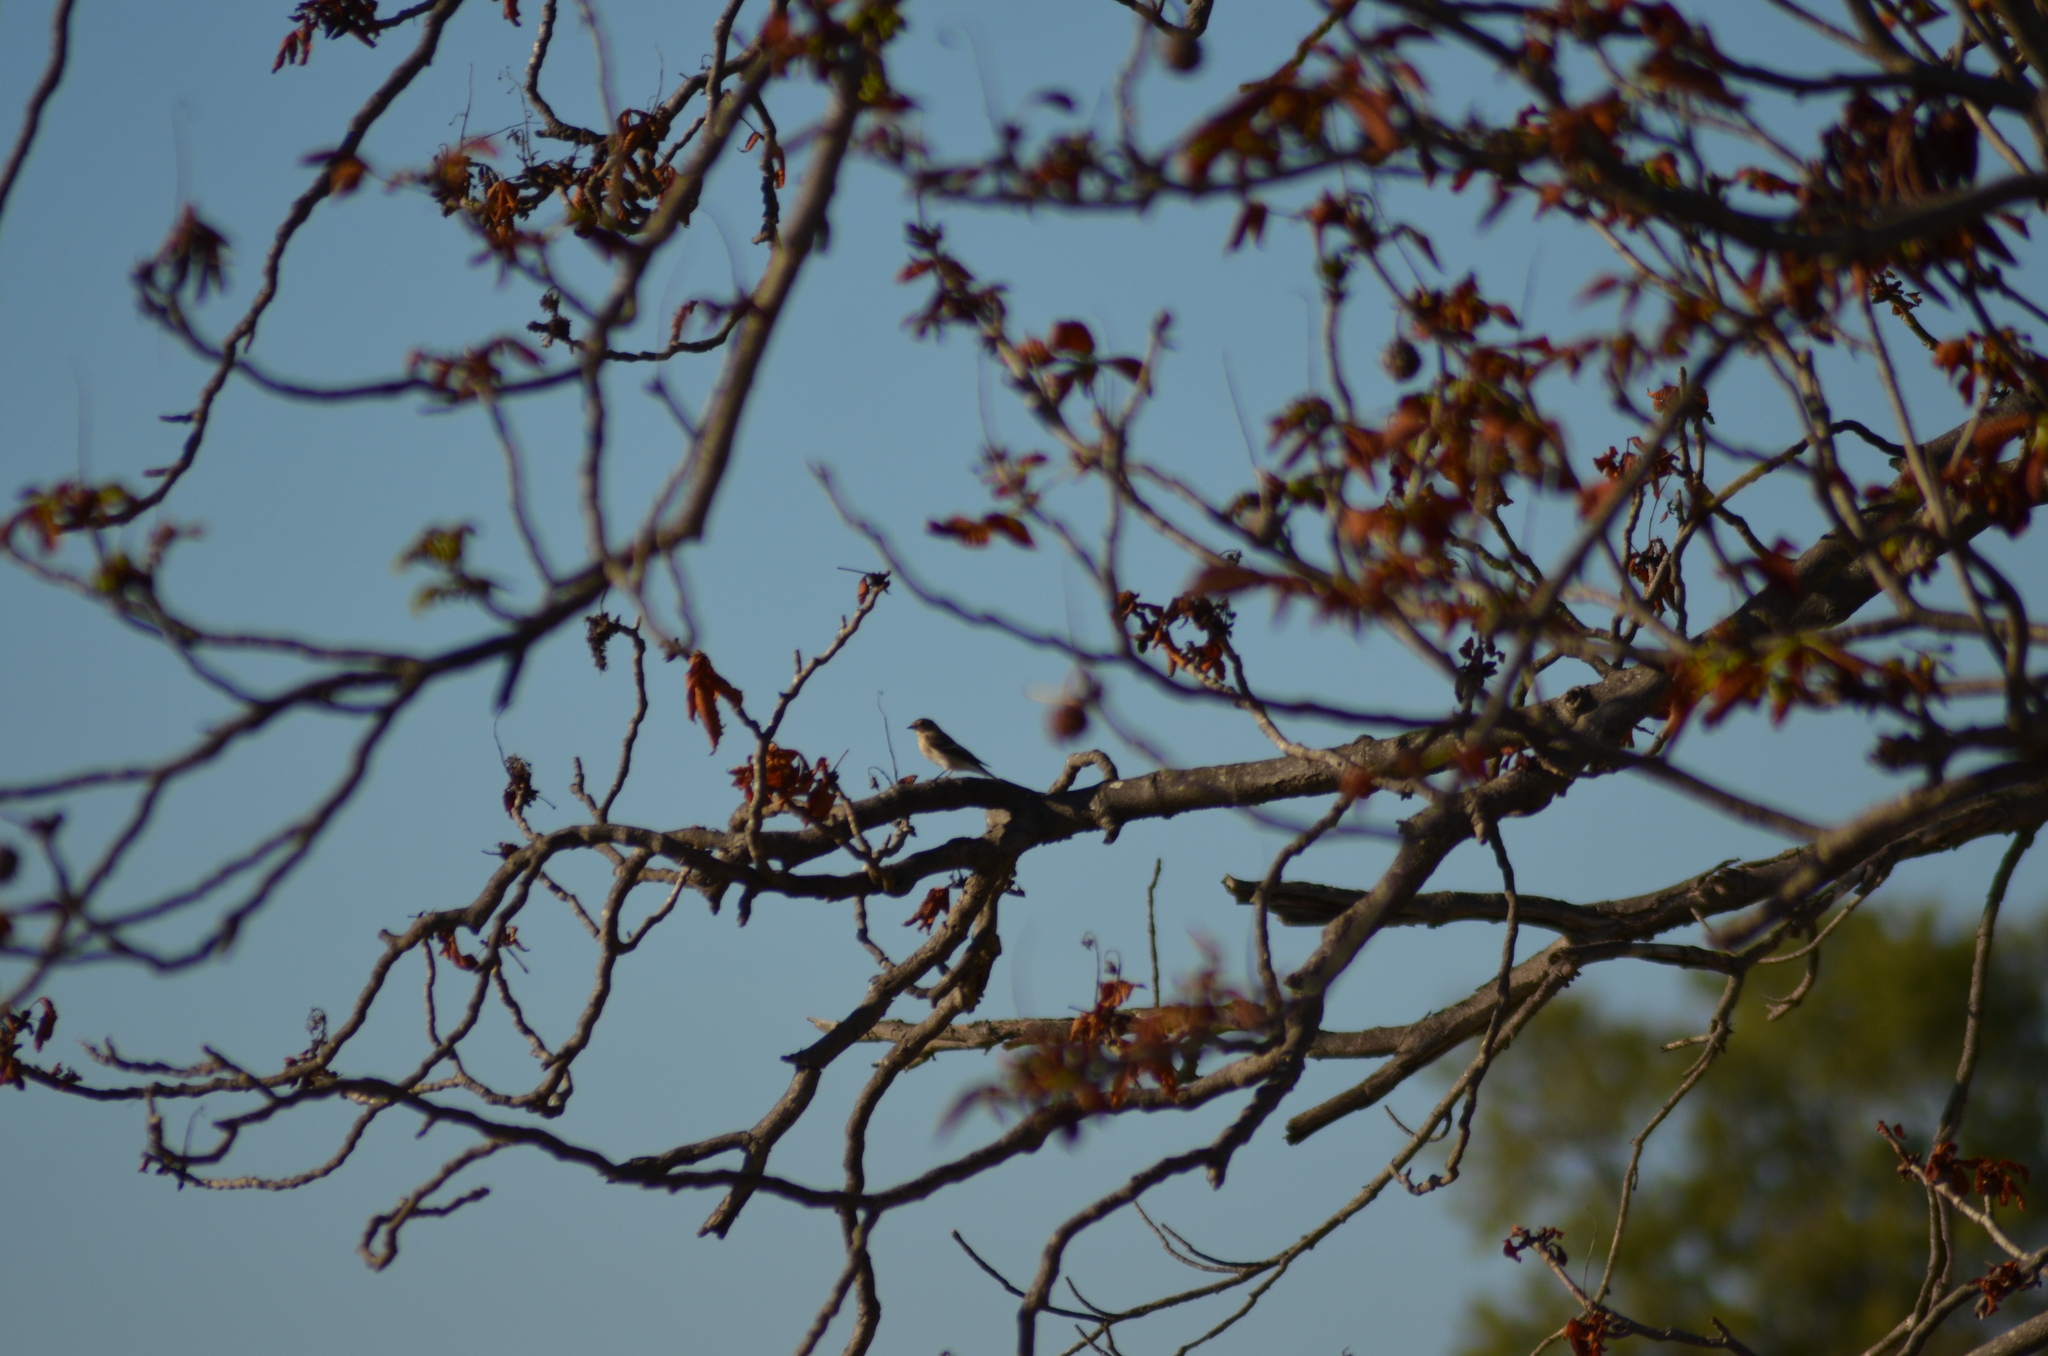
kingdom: Animalia
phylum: Chordata
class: Aves
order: Passeriformes
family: Muscicapidae
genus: Ficedula
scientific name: Ficedula hypoleuca
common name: European pied flycatcher
